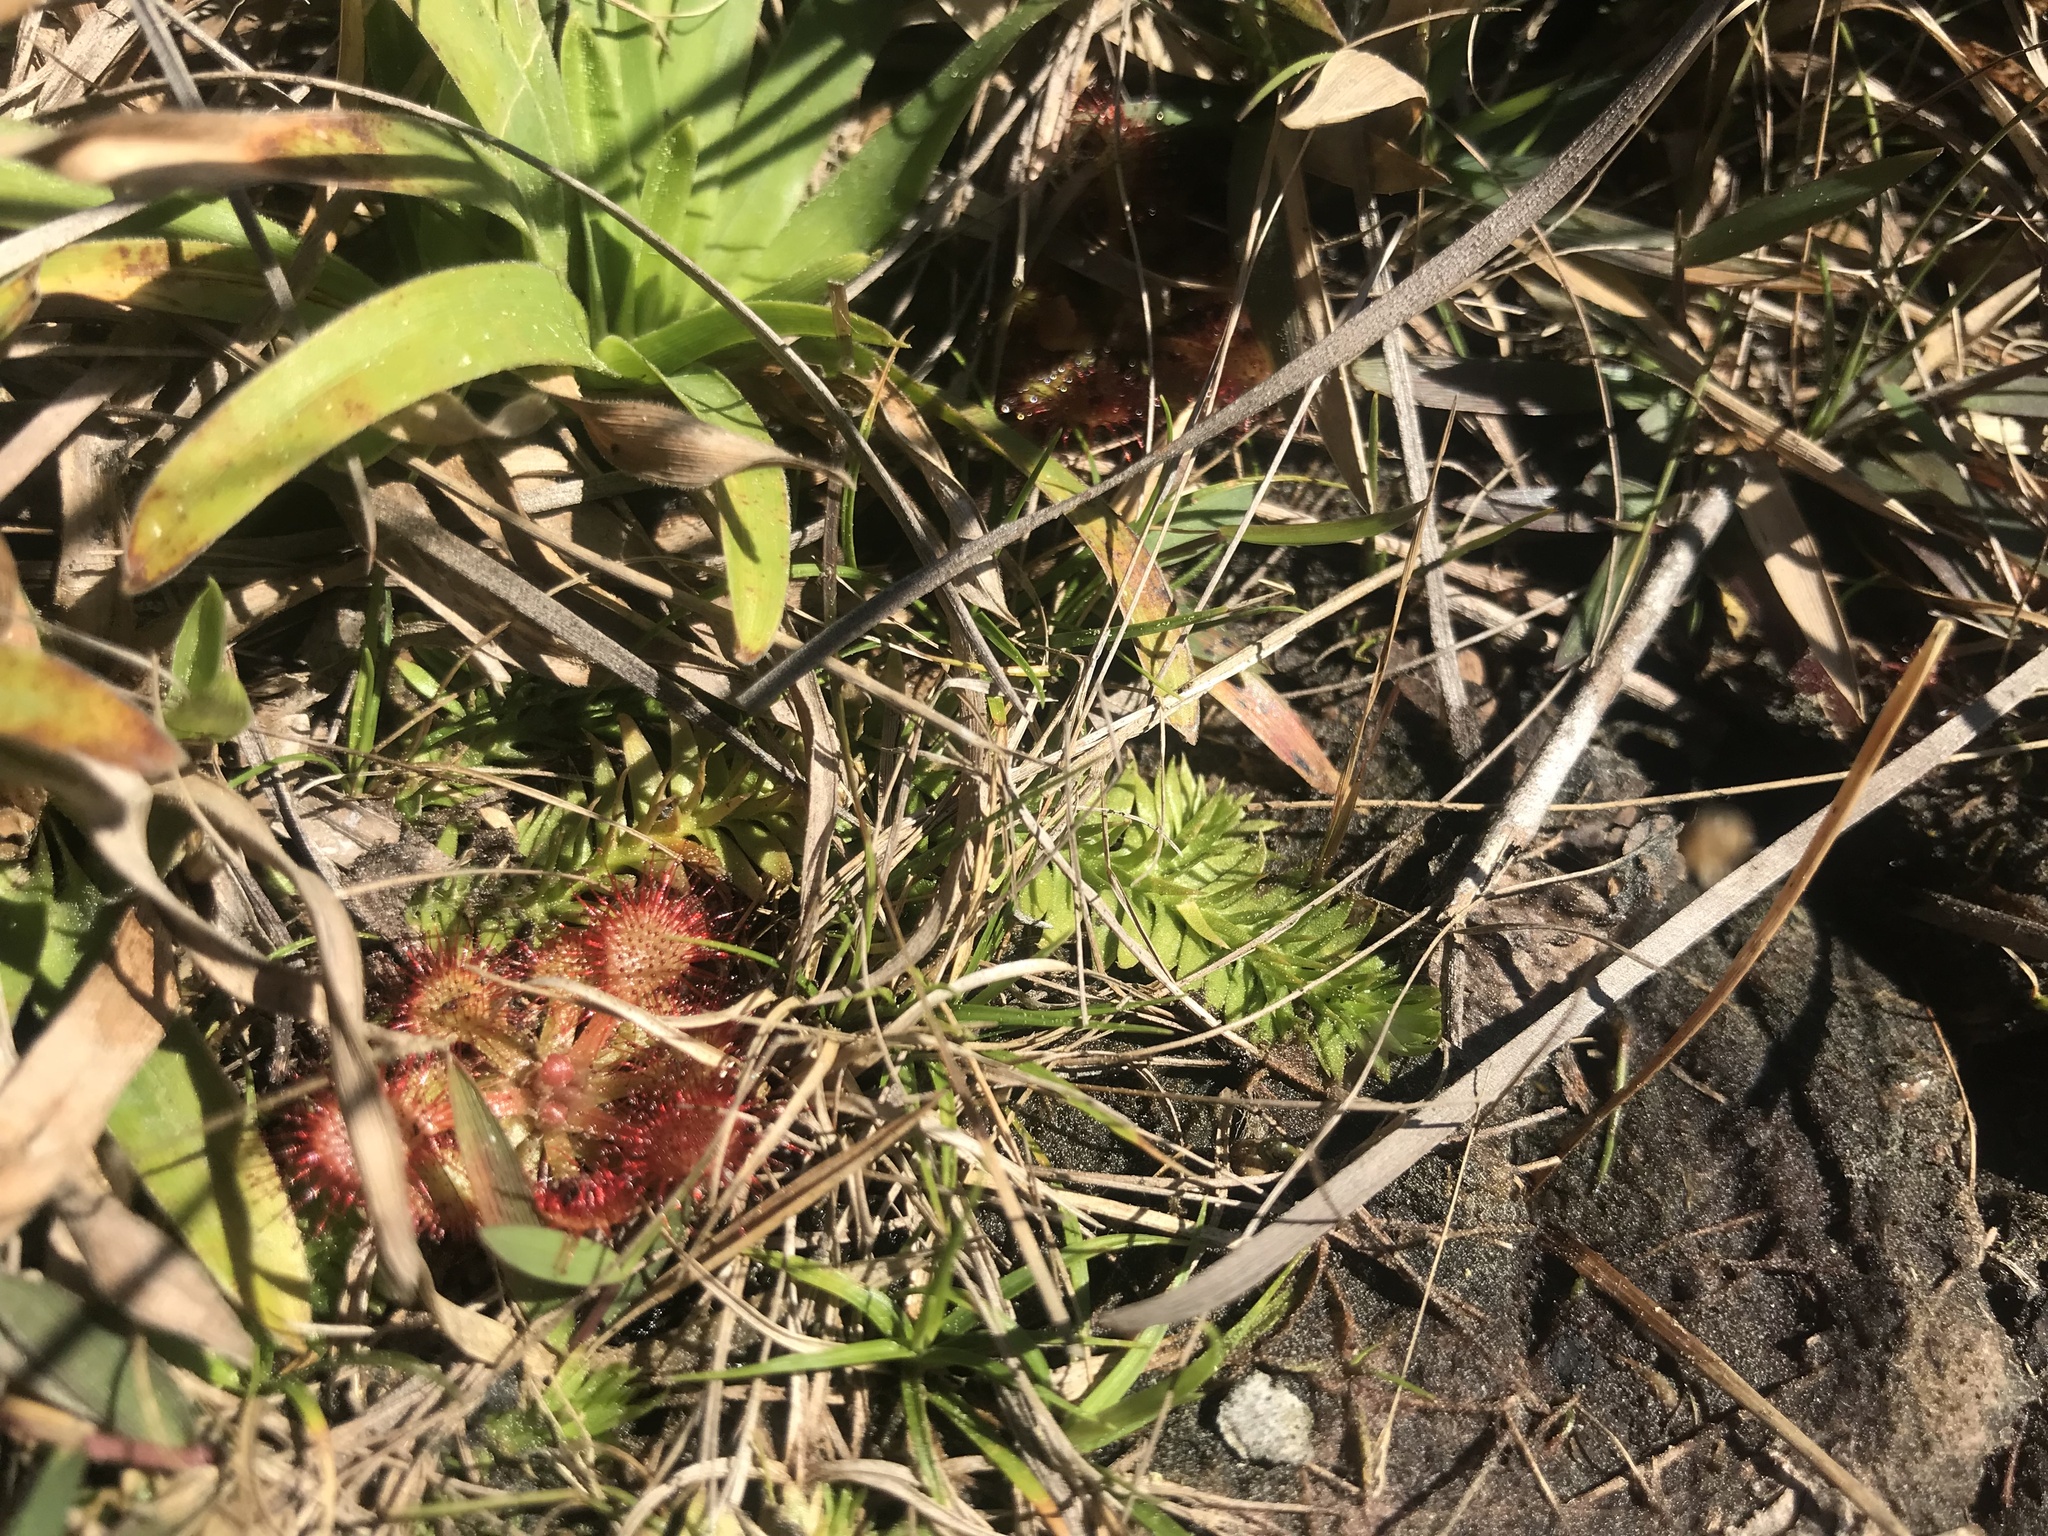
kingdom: Plantae
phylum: Tracheophyta
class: Magnoliopsida
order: Caryophyllales
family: Droseraceae
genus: Drosera
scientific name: Drosera capillaris
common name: Pink sundew
